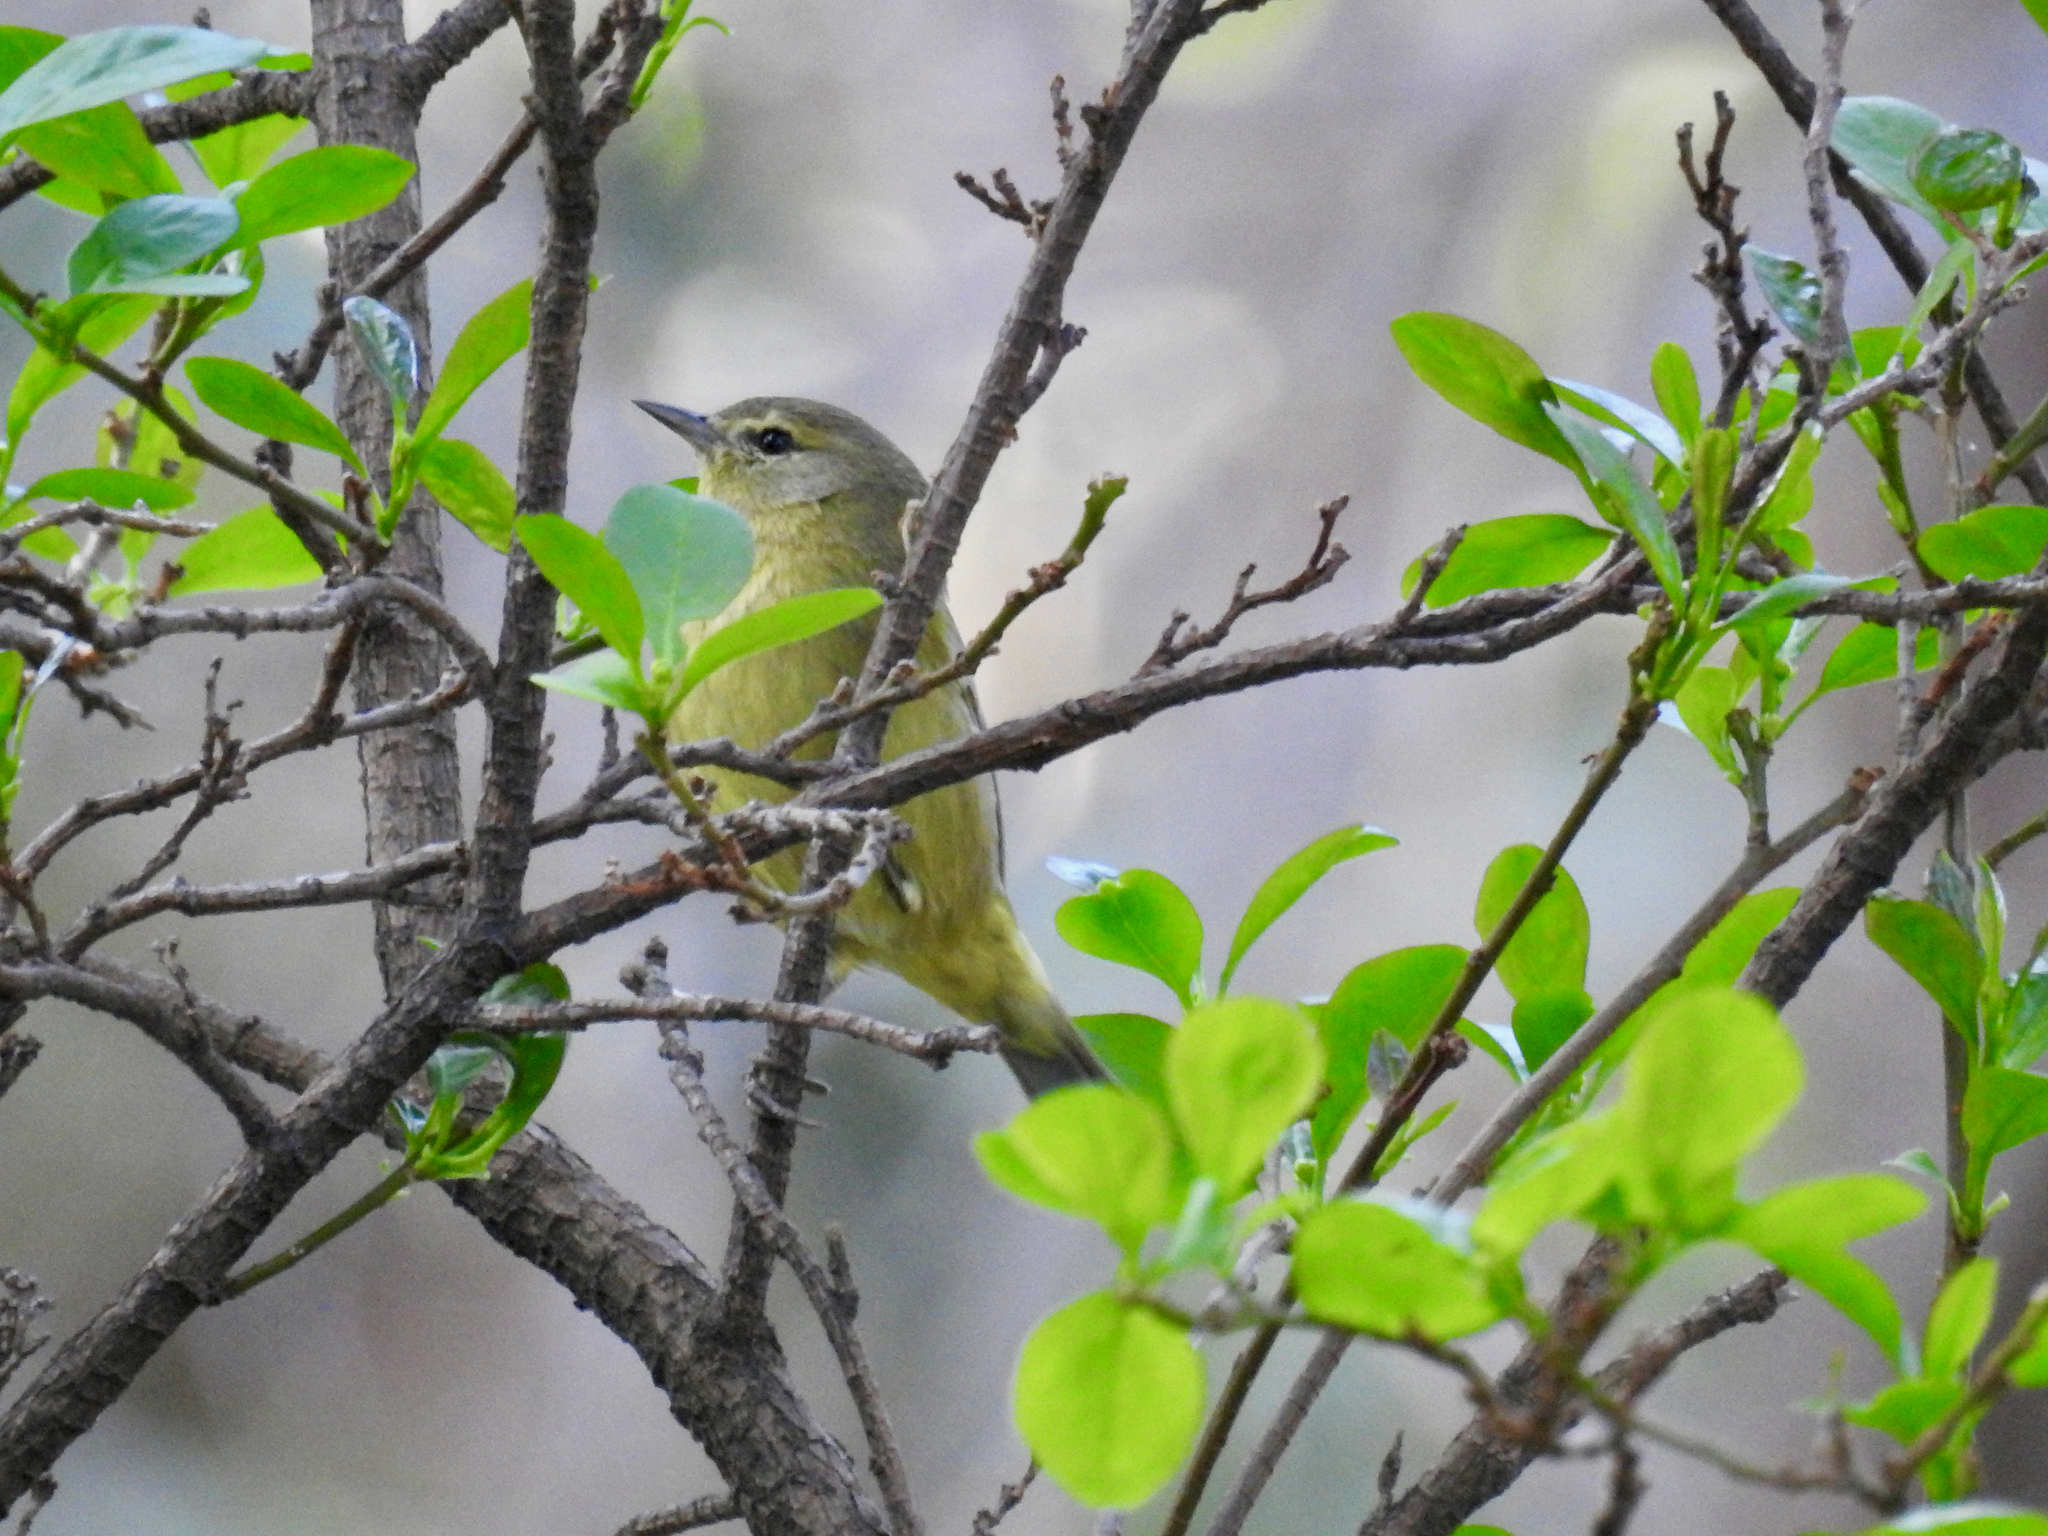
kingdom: Animalia
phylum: Chordata
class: Aves
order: Passeriformes
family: Parulidae
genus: Leiothlypis
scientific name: Leiothlypis celata
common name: Orange-crowned warbler
